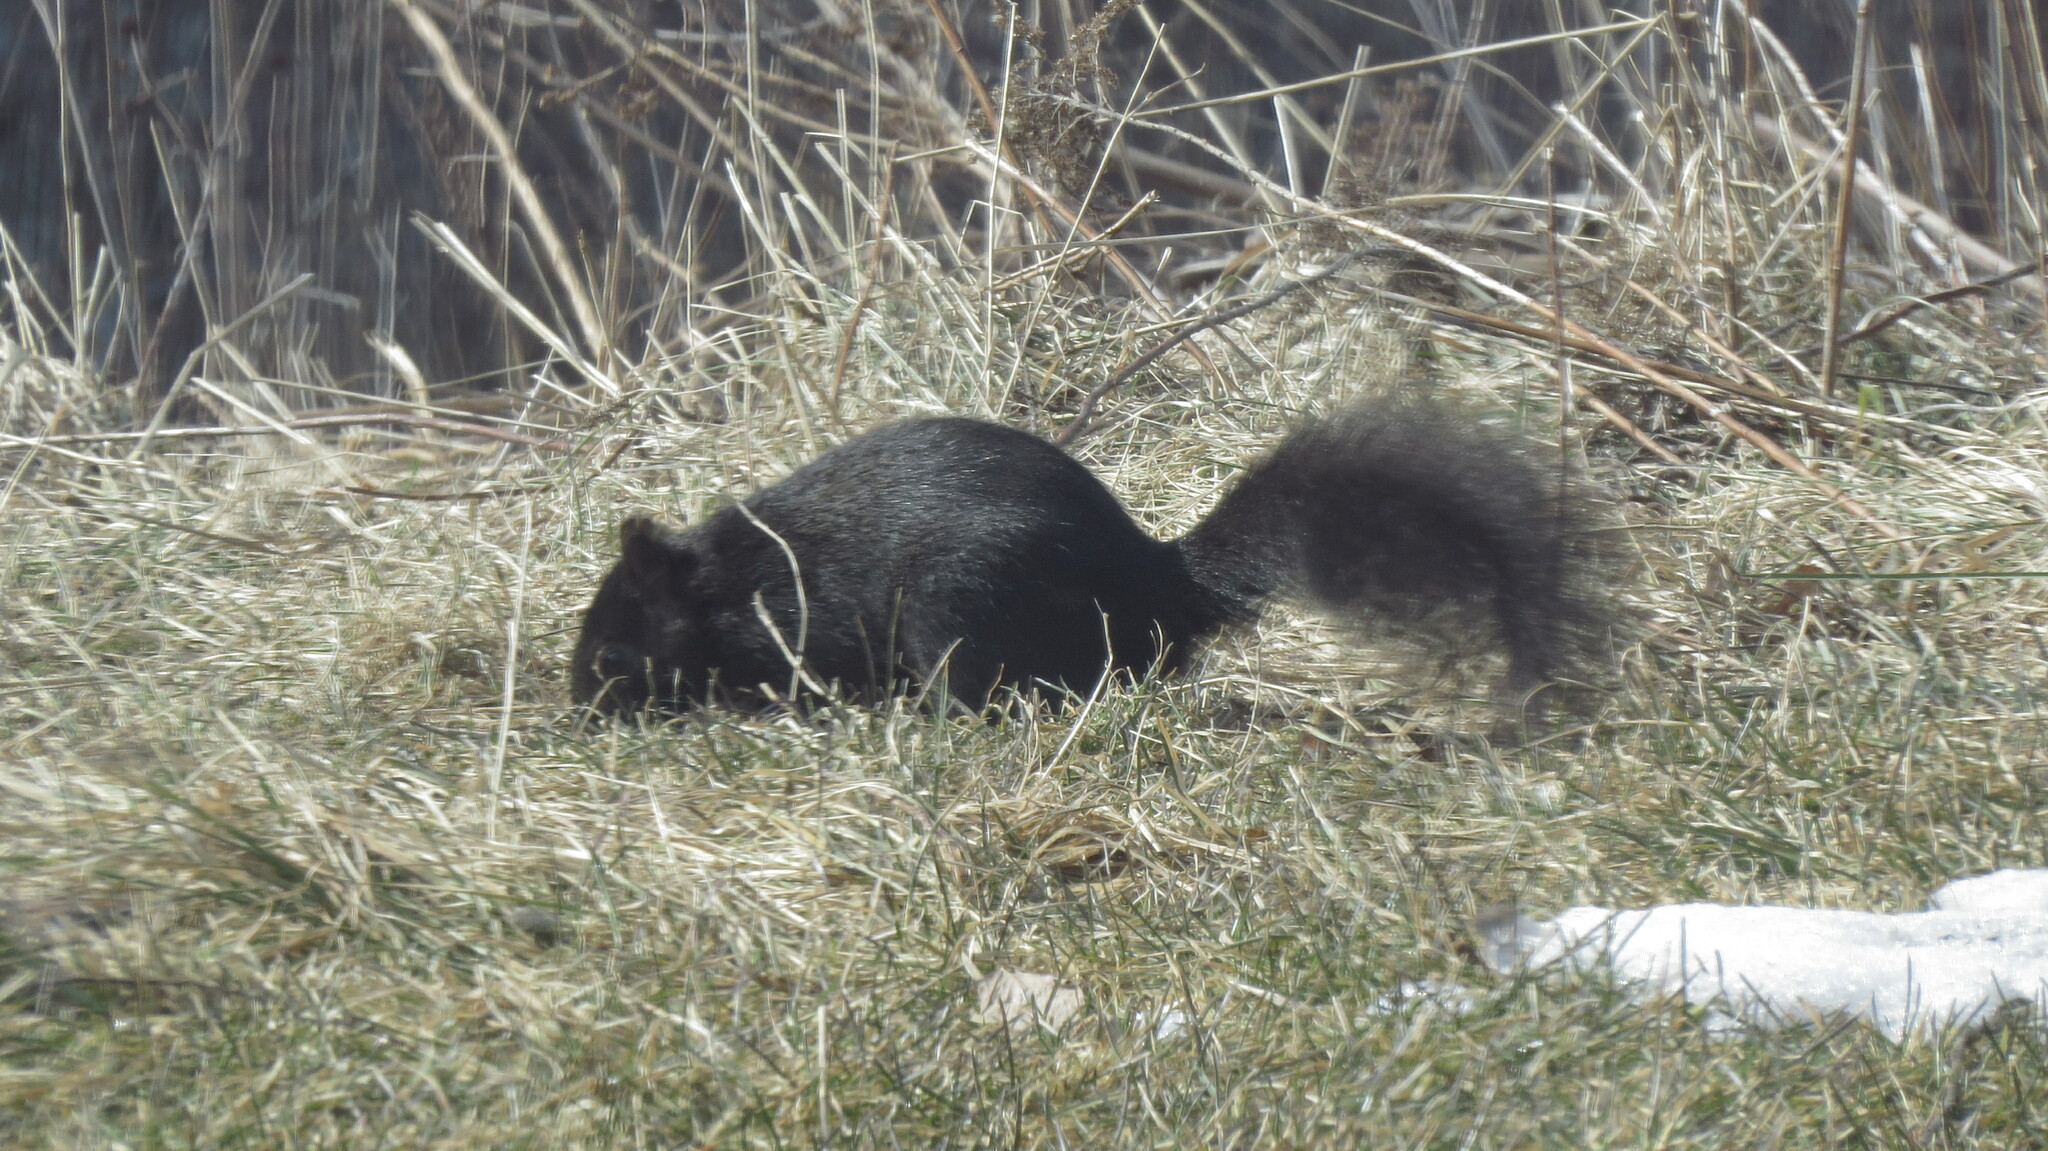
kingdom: Animalia
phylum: Chordata
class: Mammalia
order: Rodentia
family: Sciuridae
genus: Sciurus
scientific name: Sciurus carolinensis
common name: Eastern gray squirrel
